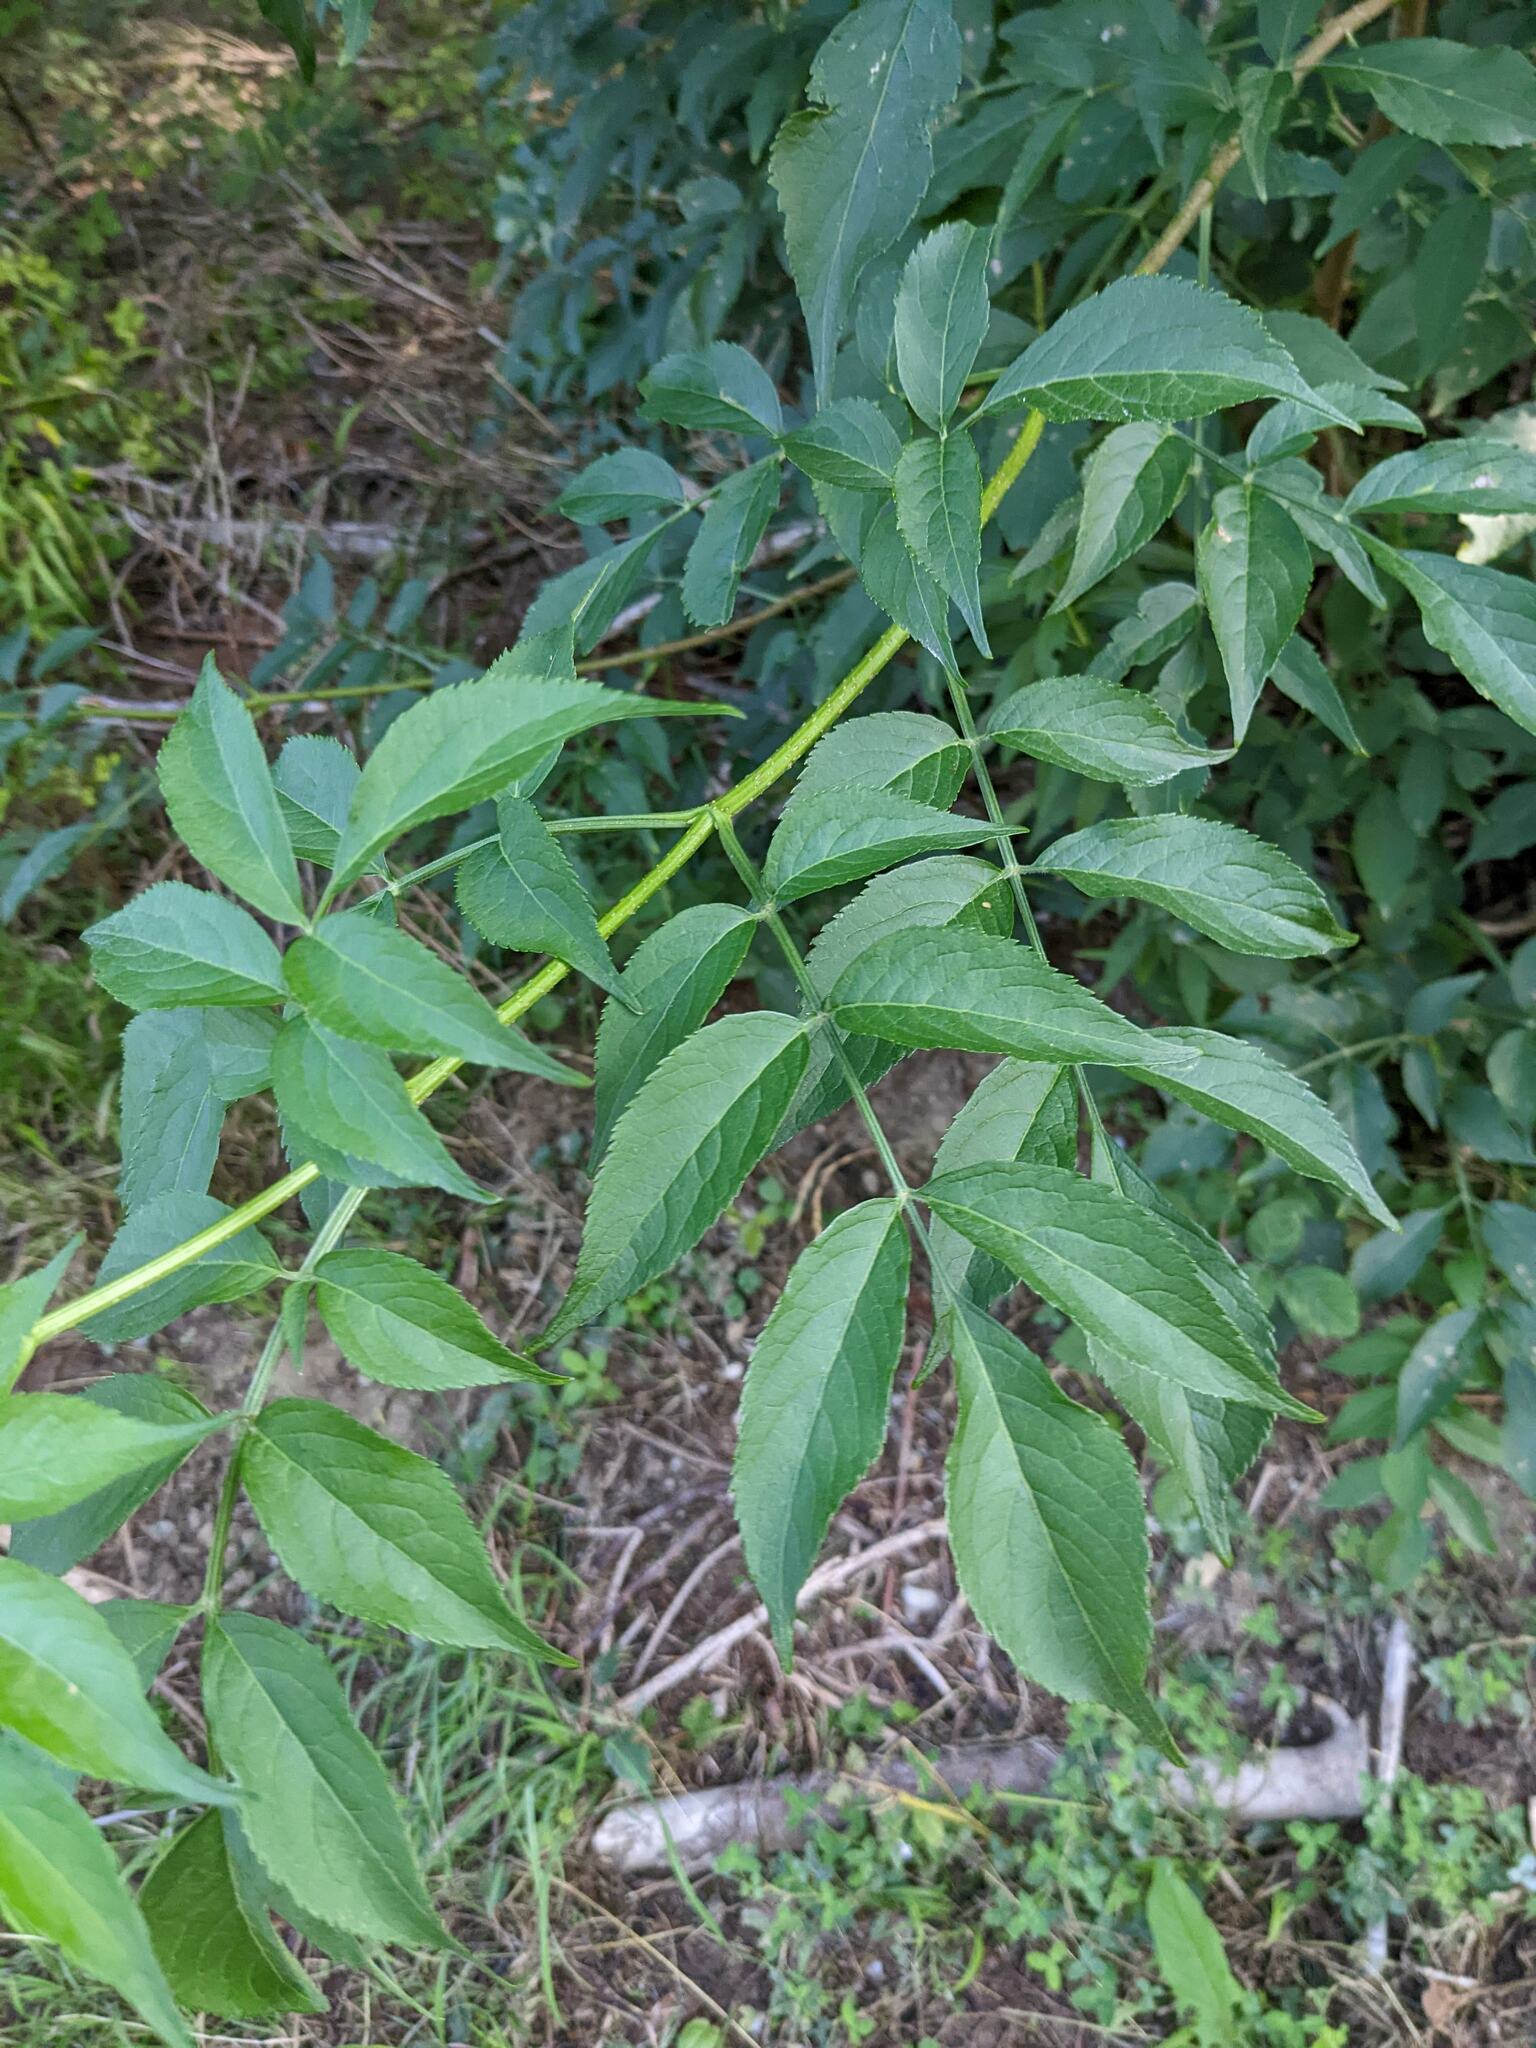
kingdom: Plantae
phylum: Tracheophyta
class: Magnoliopsida
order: Dipsacales
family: Viburnaceae
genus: Sambucus
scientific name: Sambucus nigra
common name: Elder
